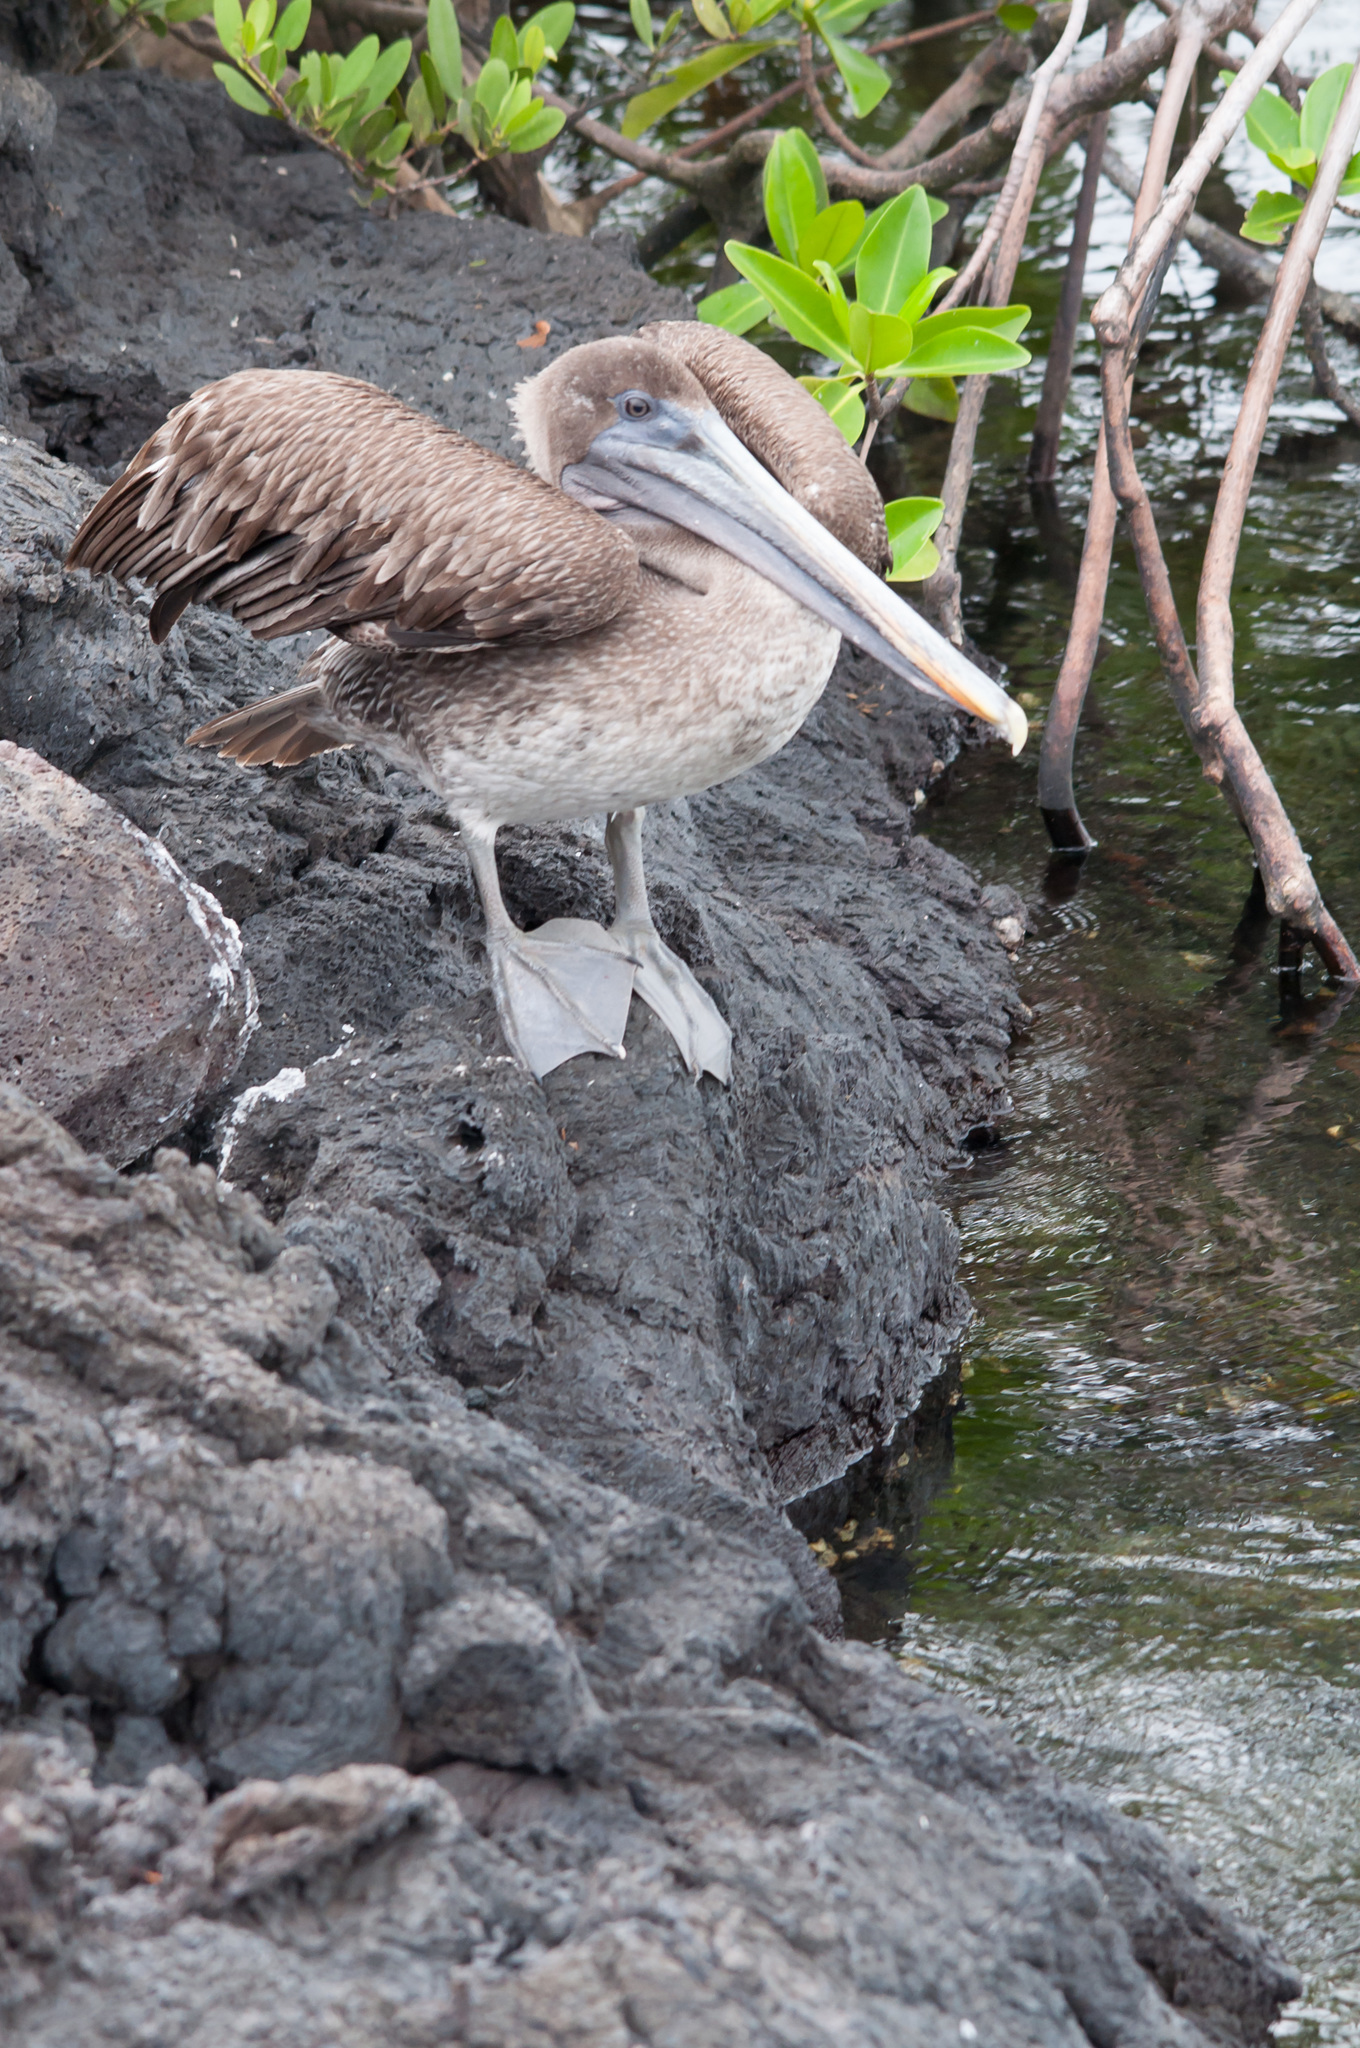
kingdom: Animalia
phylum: Chordata
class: Aves
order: Pelecaniformes
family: Pelecanidae
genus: Pelecanus
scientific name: Pelecanus occidentalis
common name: Brown pelican
